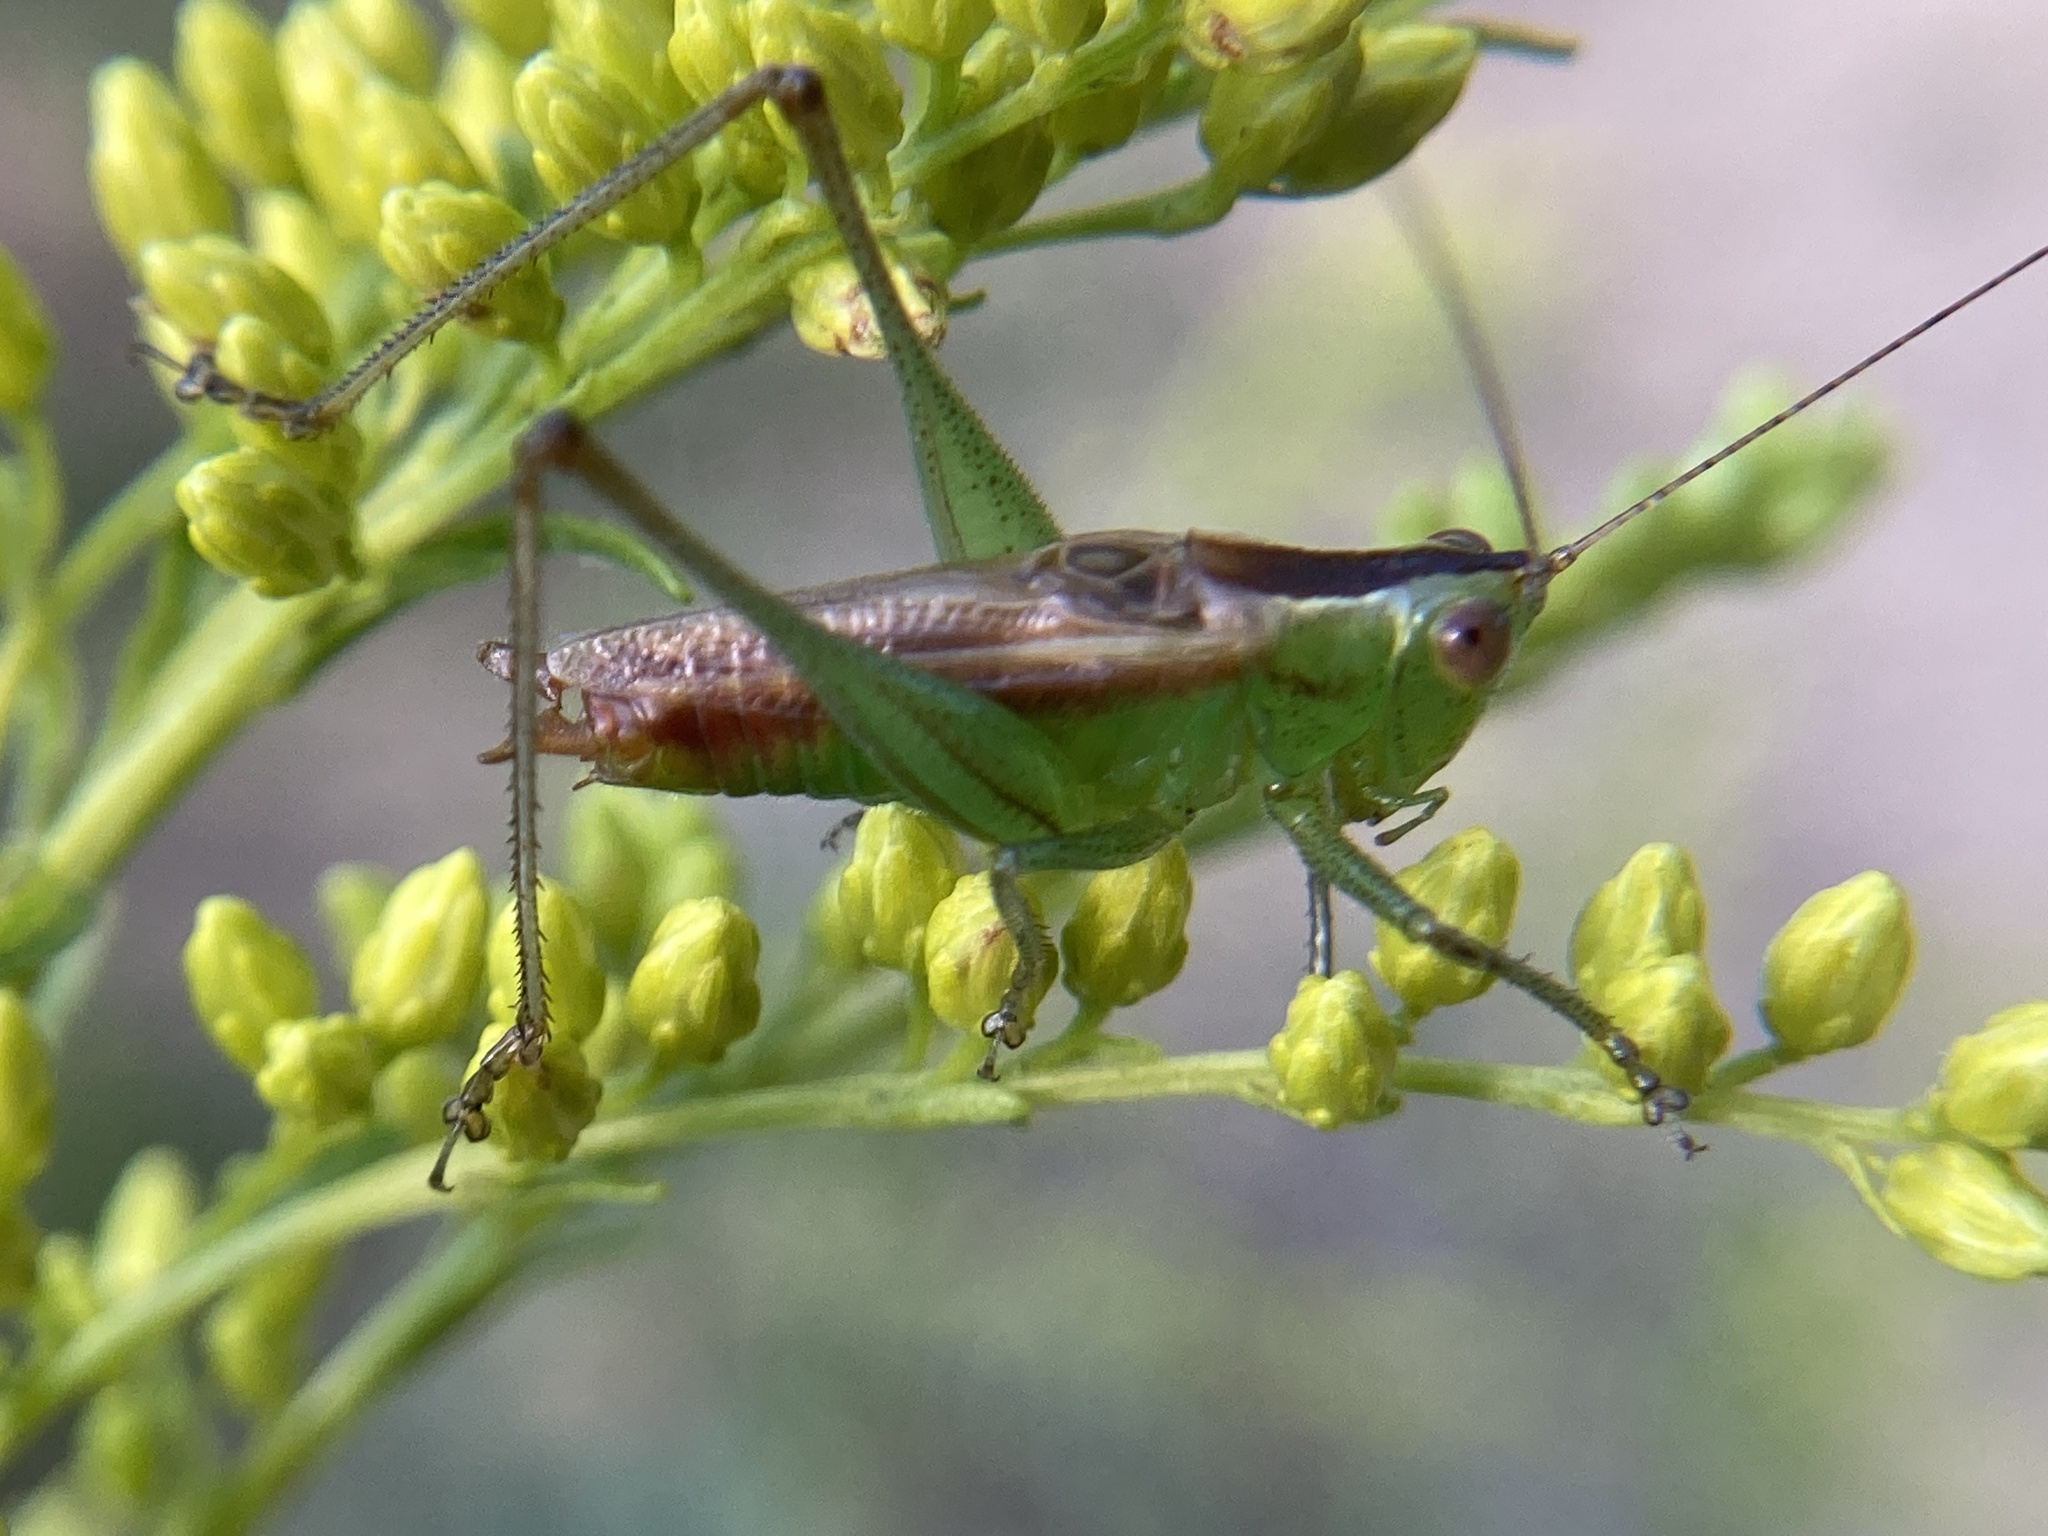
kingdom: Animalia
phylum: Arthropoda
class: Insecta
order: Orthoptera
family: Tettigoniidae
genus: Conocephalus
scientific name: Conocephalus brevipennis
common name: Short-winged meadow katydid
